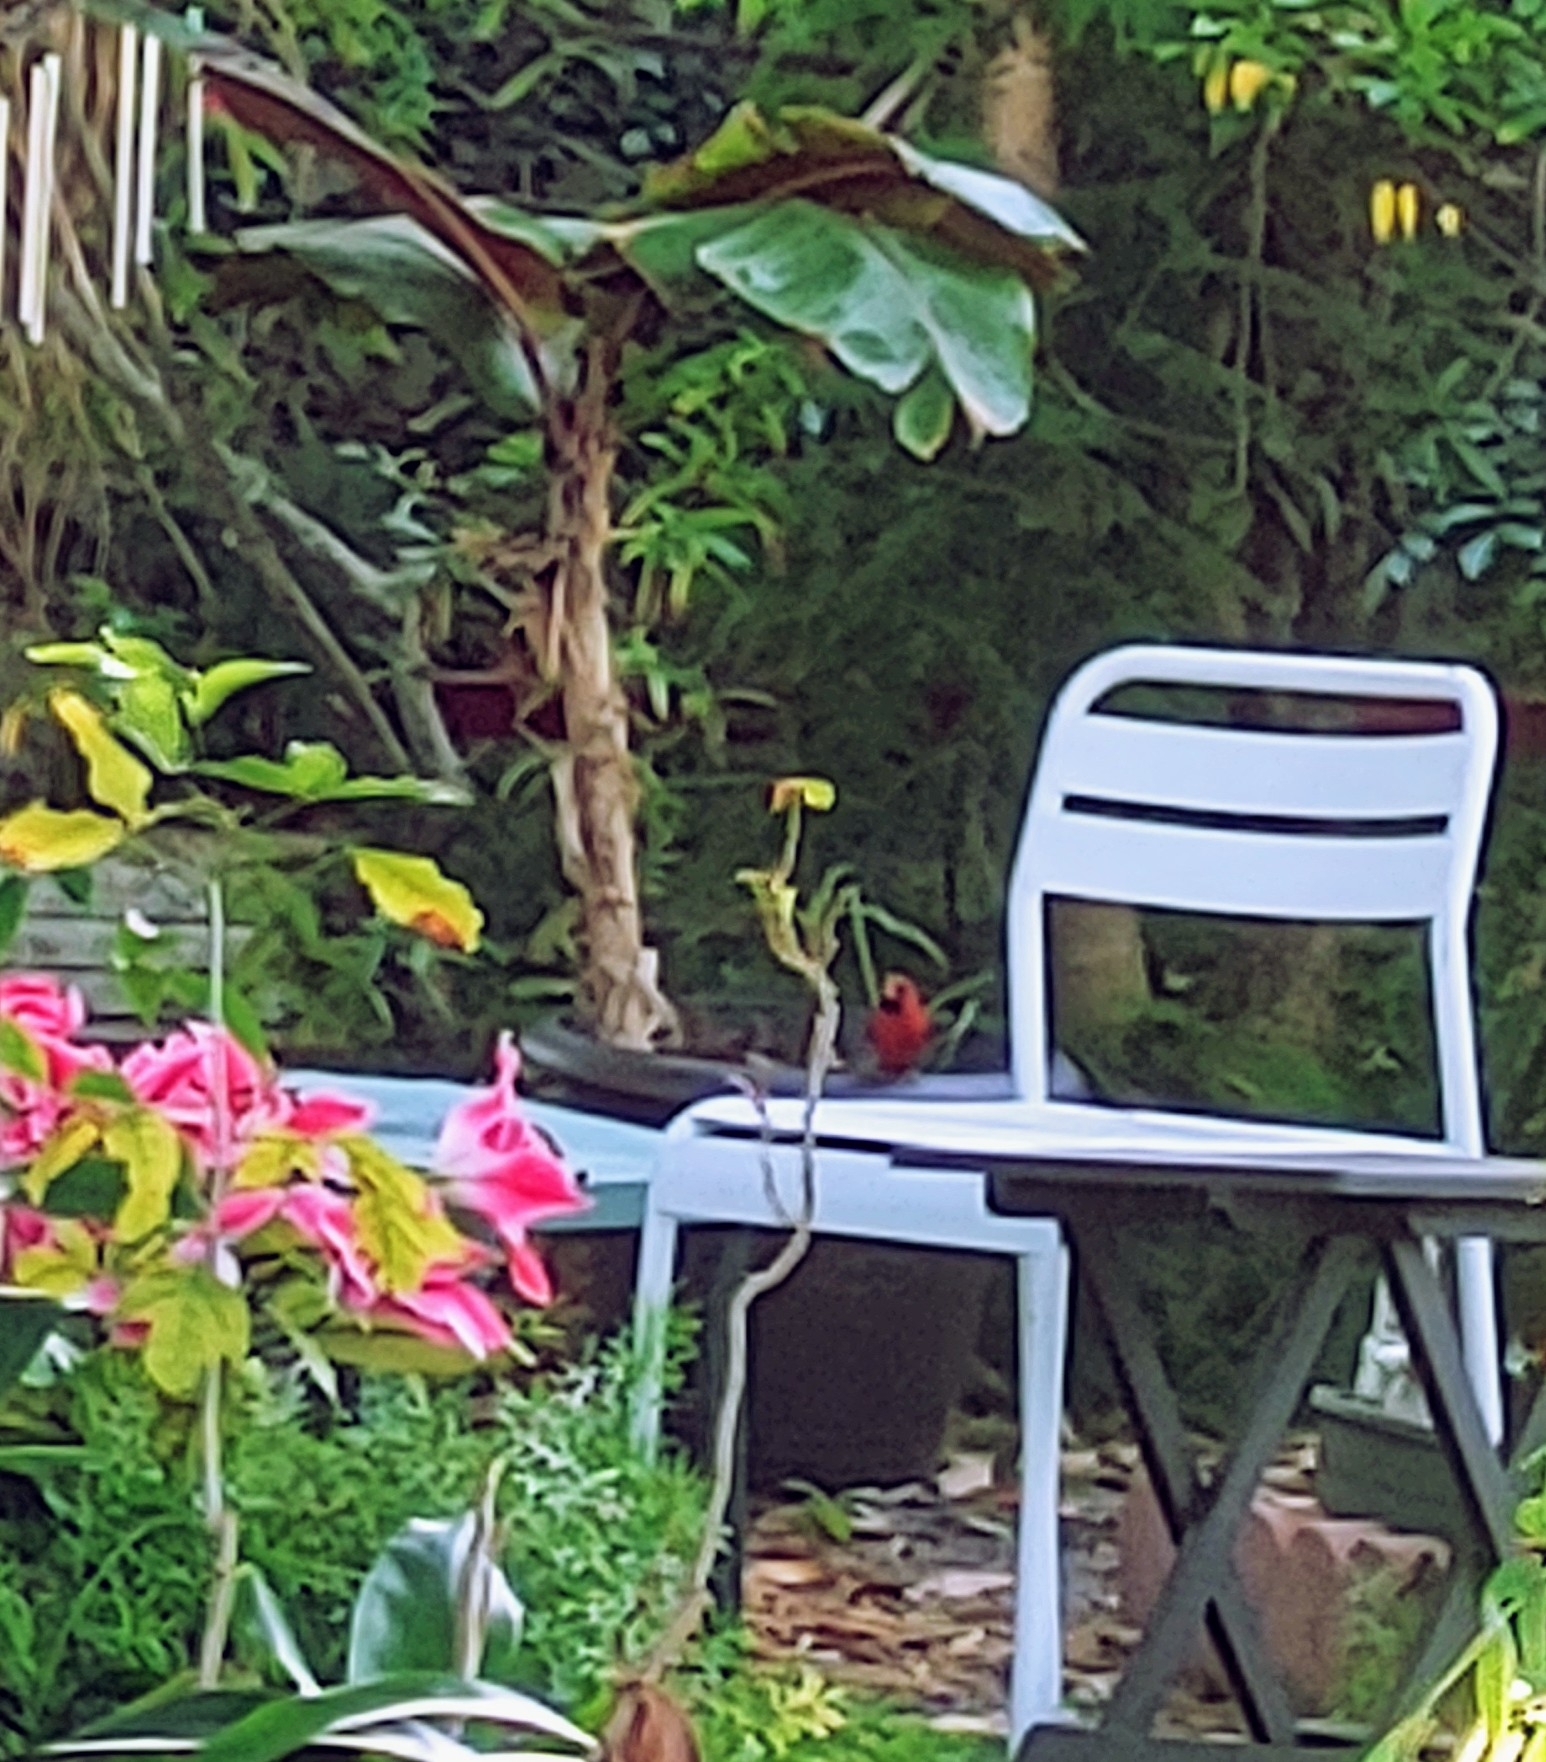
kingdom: Animalia
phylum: Chordata
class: Aves
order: Passeriformes
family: Cardinalidae
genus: Cardinalis
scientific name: Cardinalis cardinalis
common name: Northern cardinal
